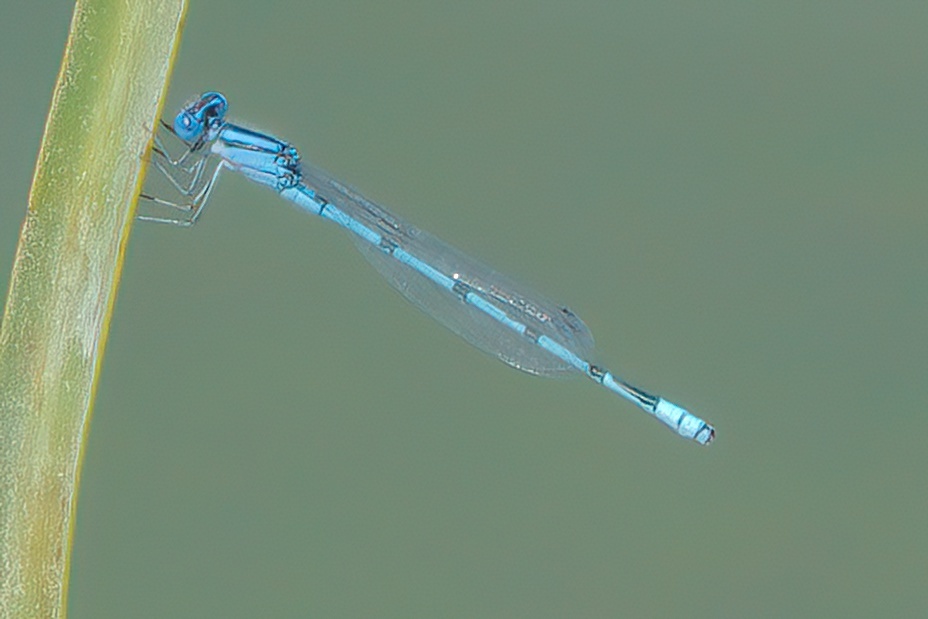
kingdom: Animalia
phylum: Arthropoda
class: Insecta
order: Odonata
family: Coenagrionidae
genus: Enallagma
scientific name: Enallagma doubledayi
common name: Atlantic bluet
